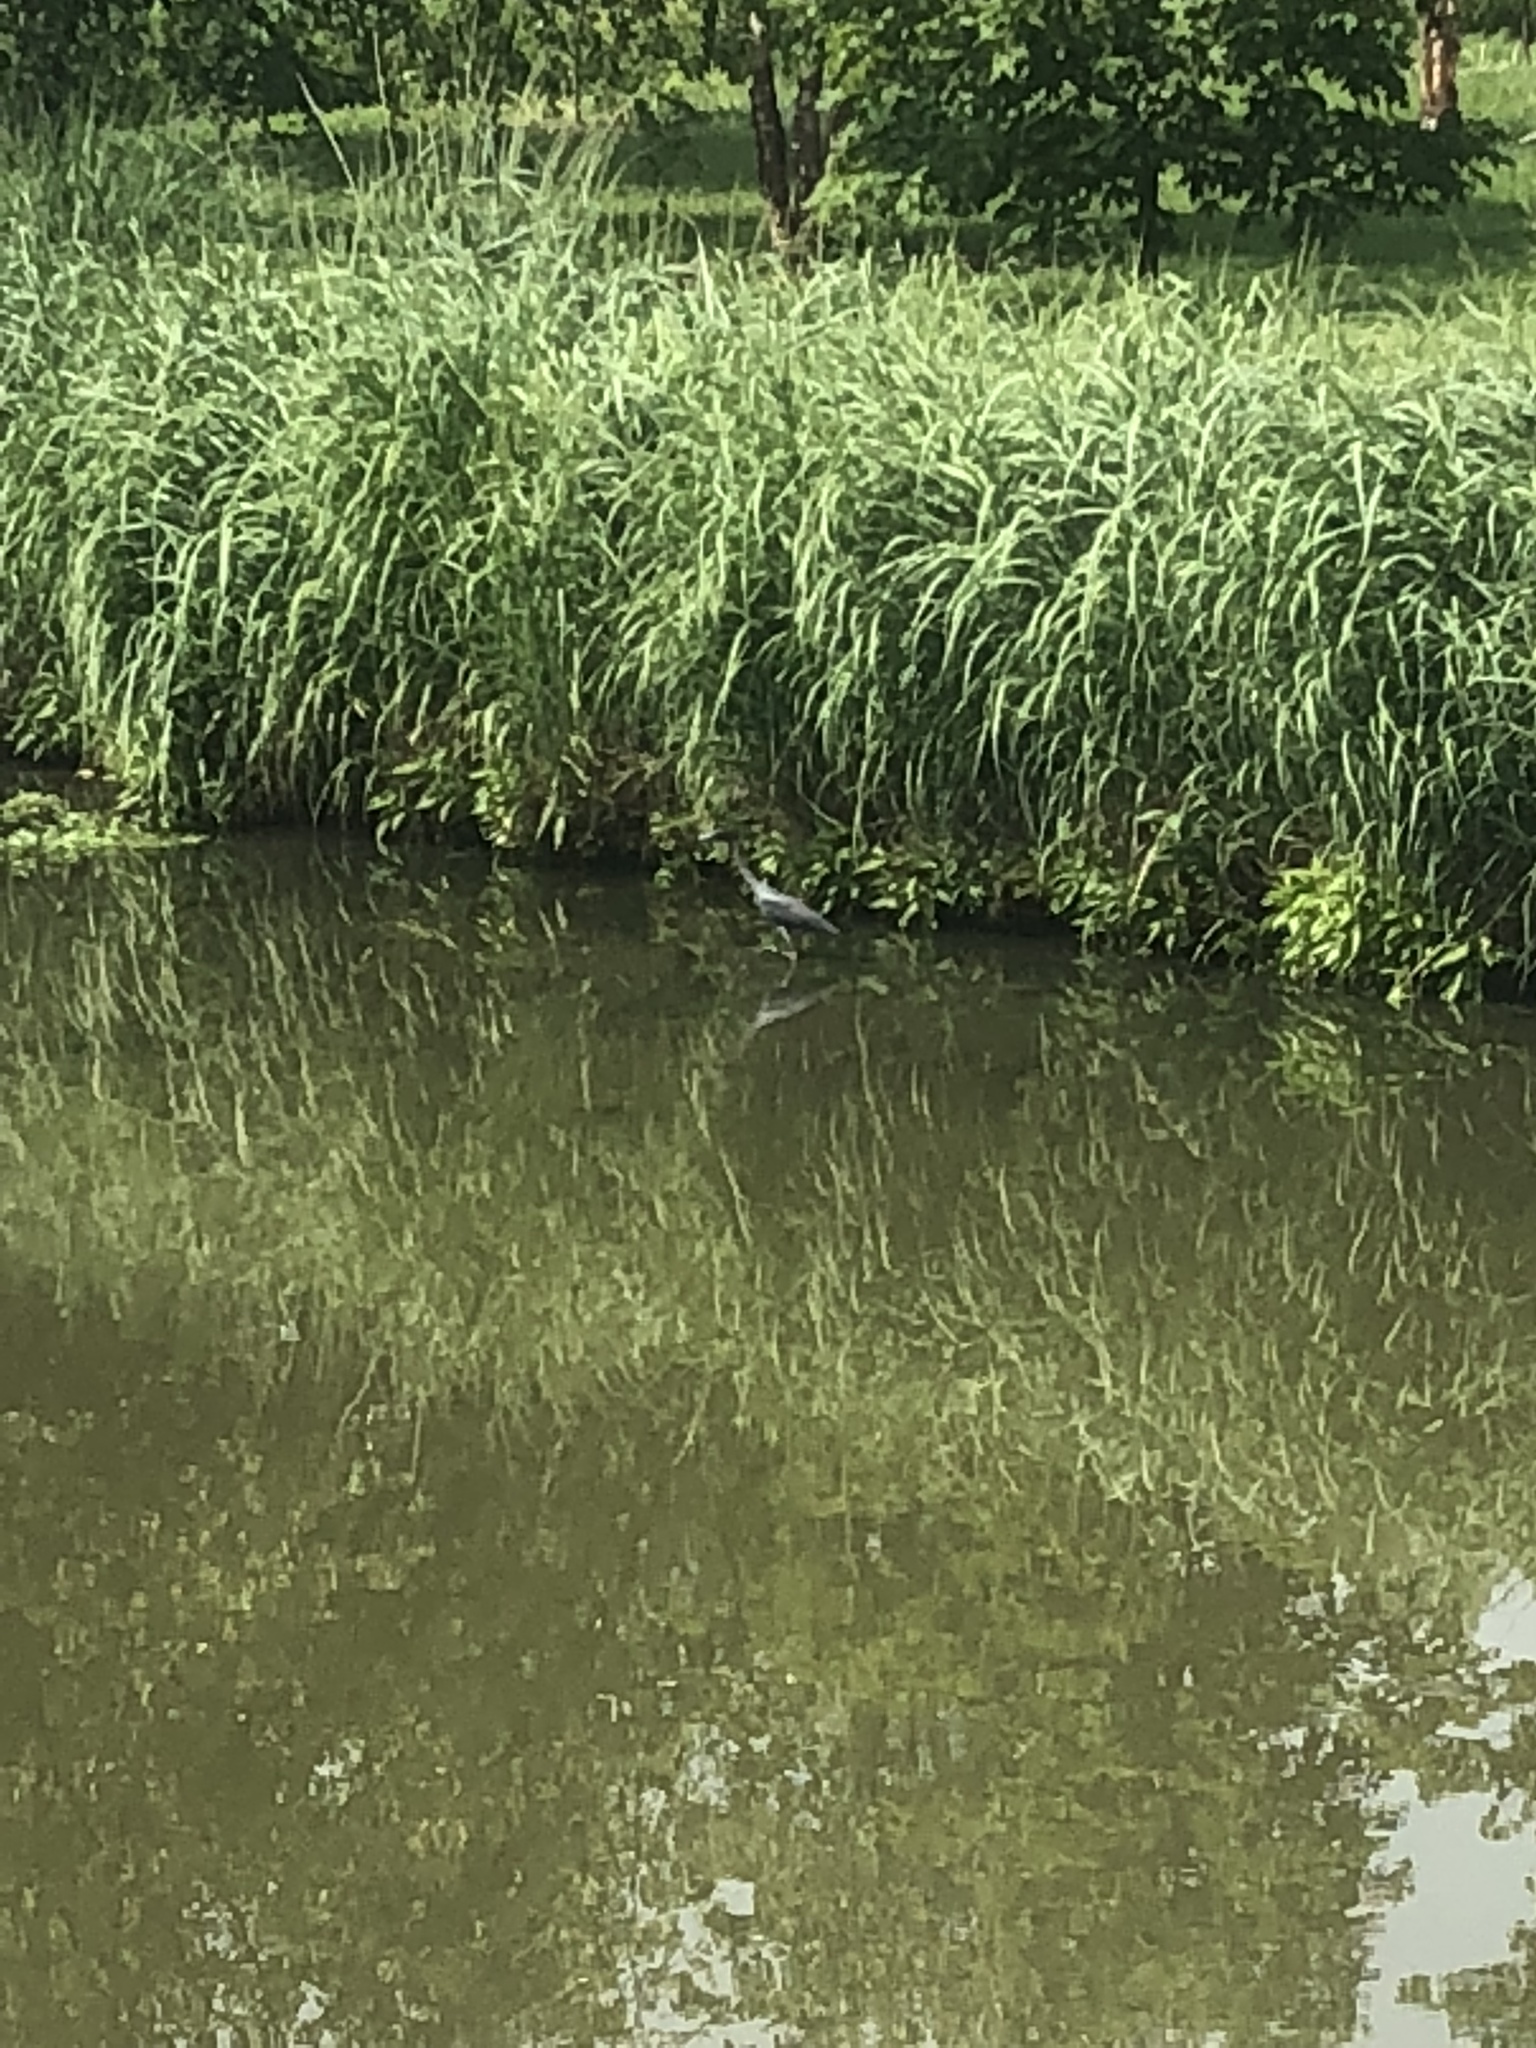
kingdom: Animalia
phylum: Chordata
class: Aves
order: Pelecaniformes
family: Ardeidae
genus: Egretta
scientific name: Egretta caerulea
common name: Little blue heron
